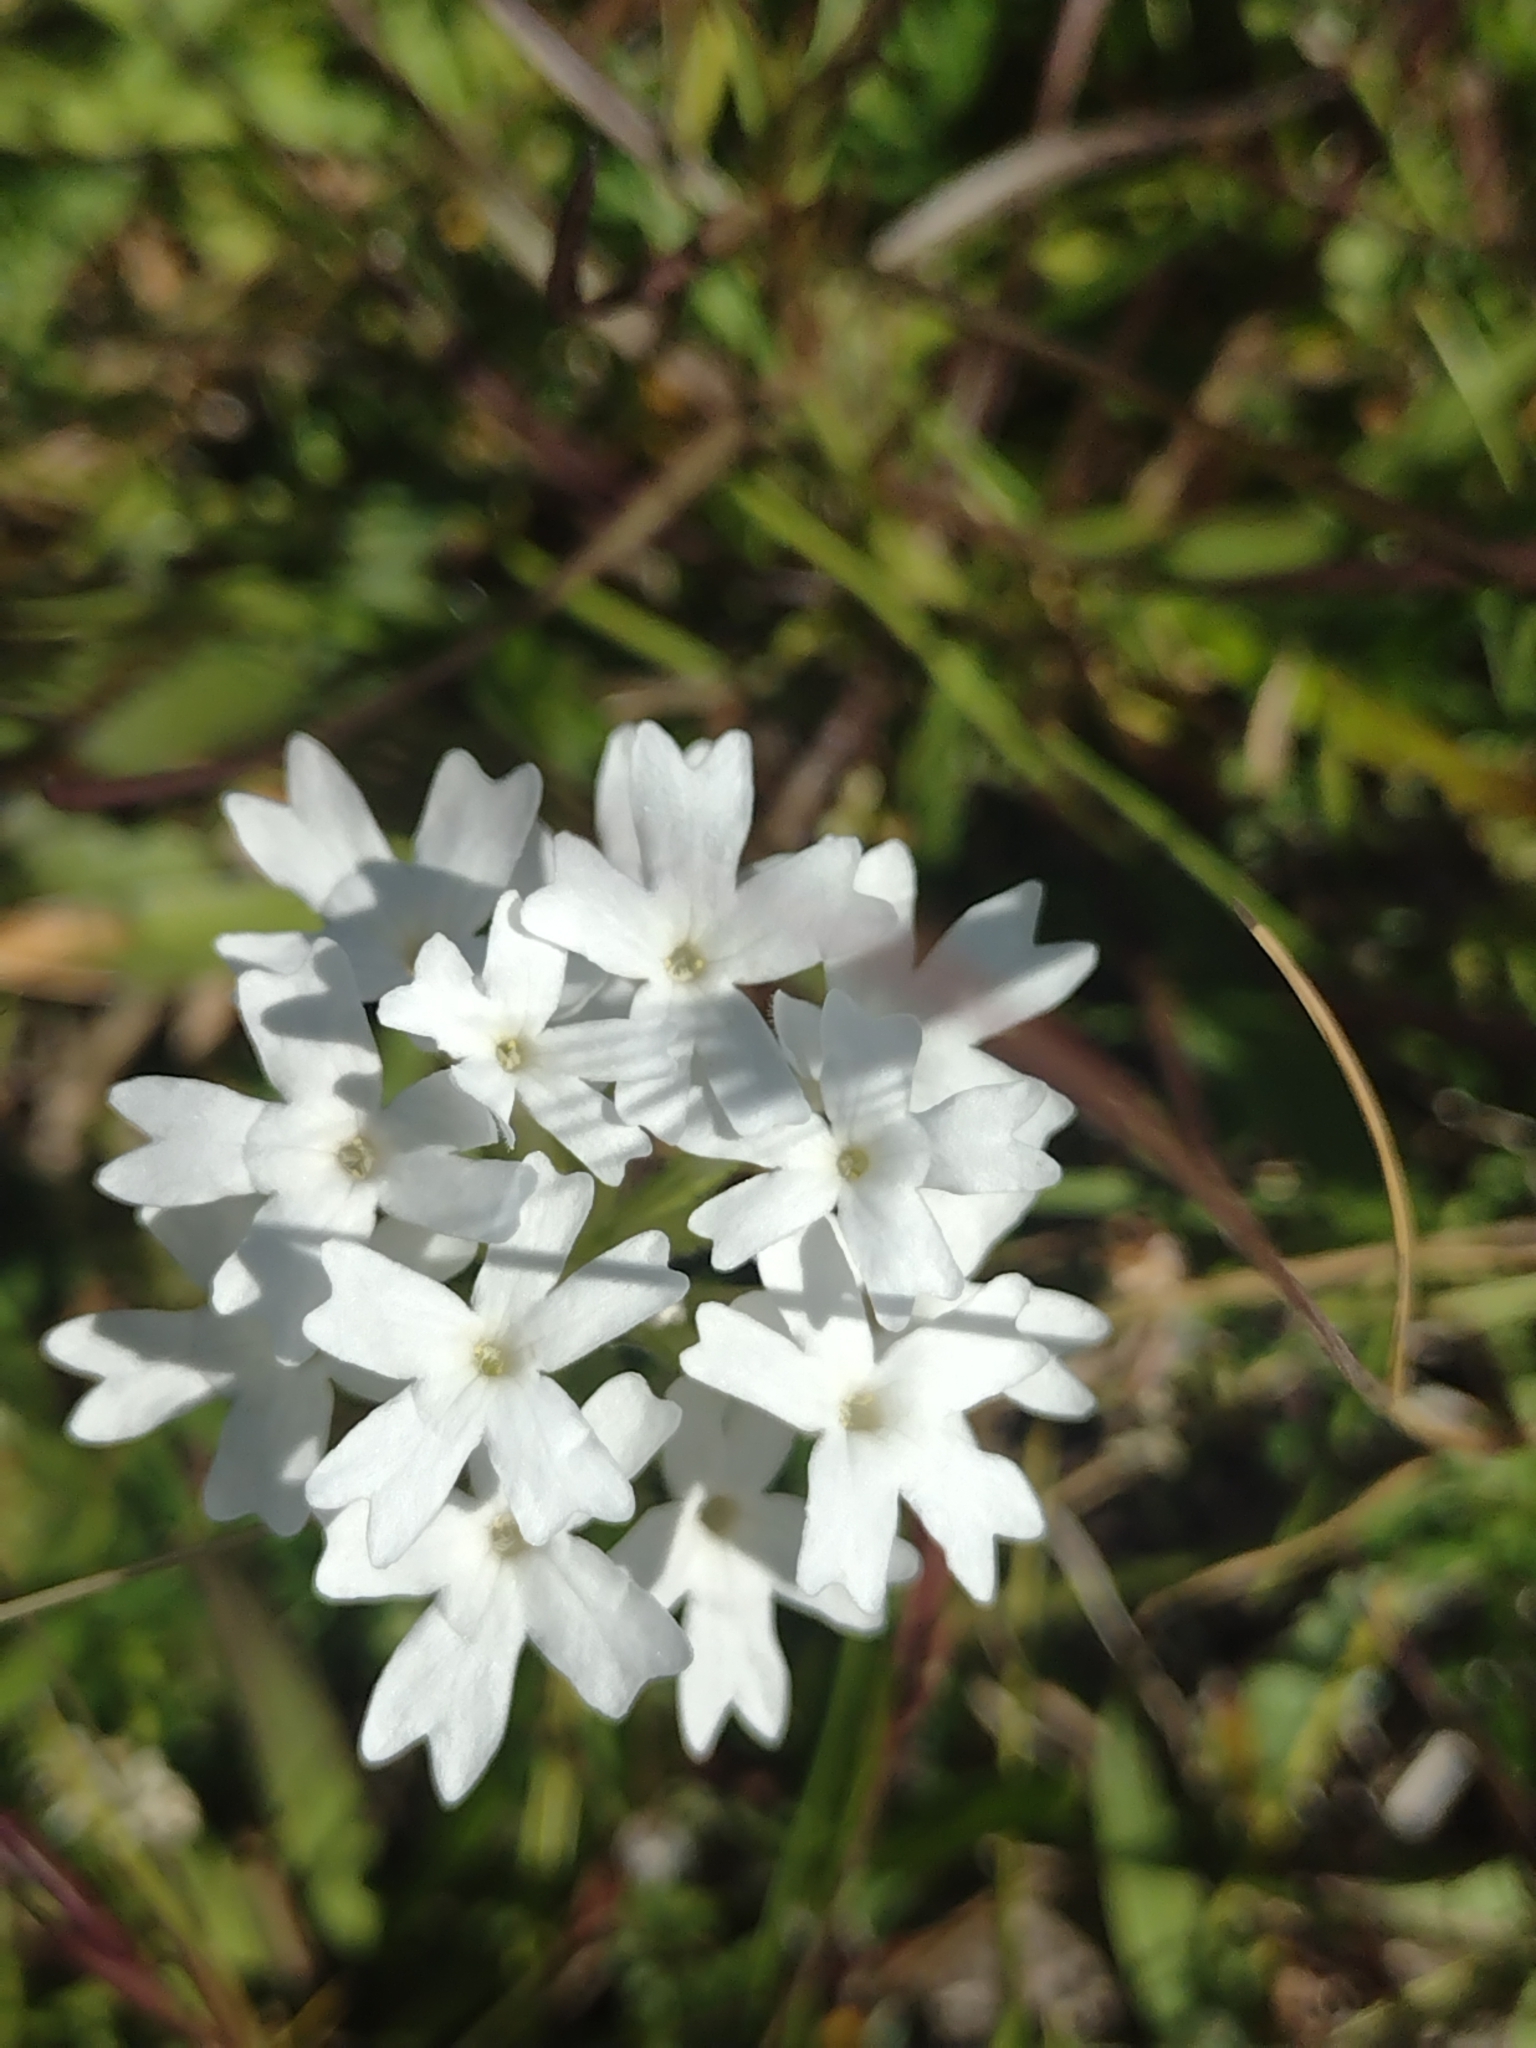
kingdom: Plantae
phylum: Tracheophyta
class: Magnoliopsida
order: Lamiales
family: Verbenaceae
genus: Verbena
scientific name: Verbena platensis
